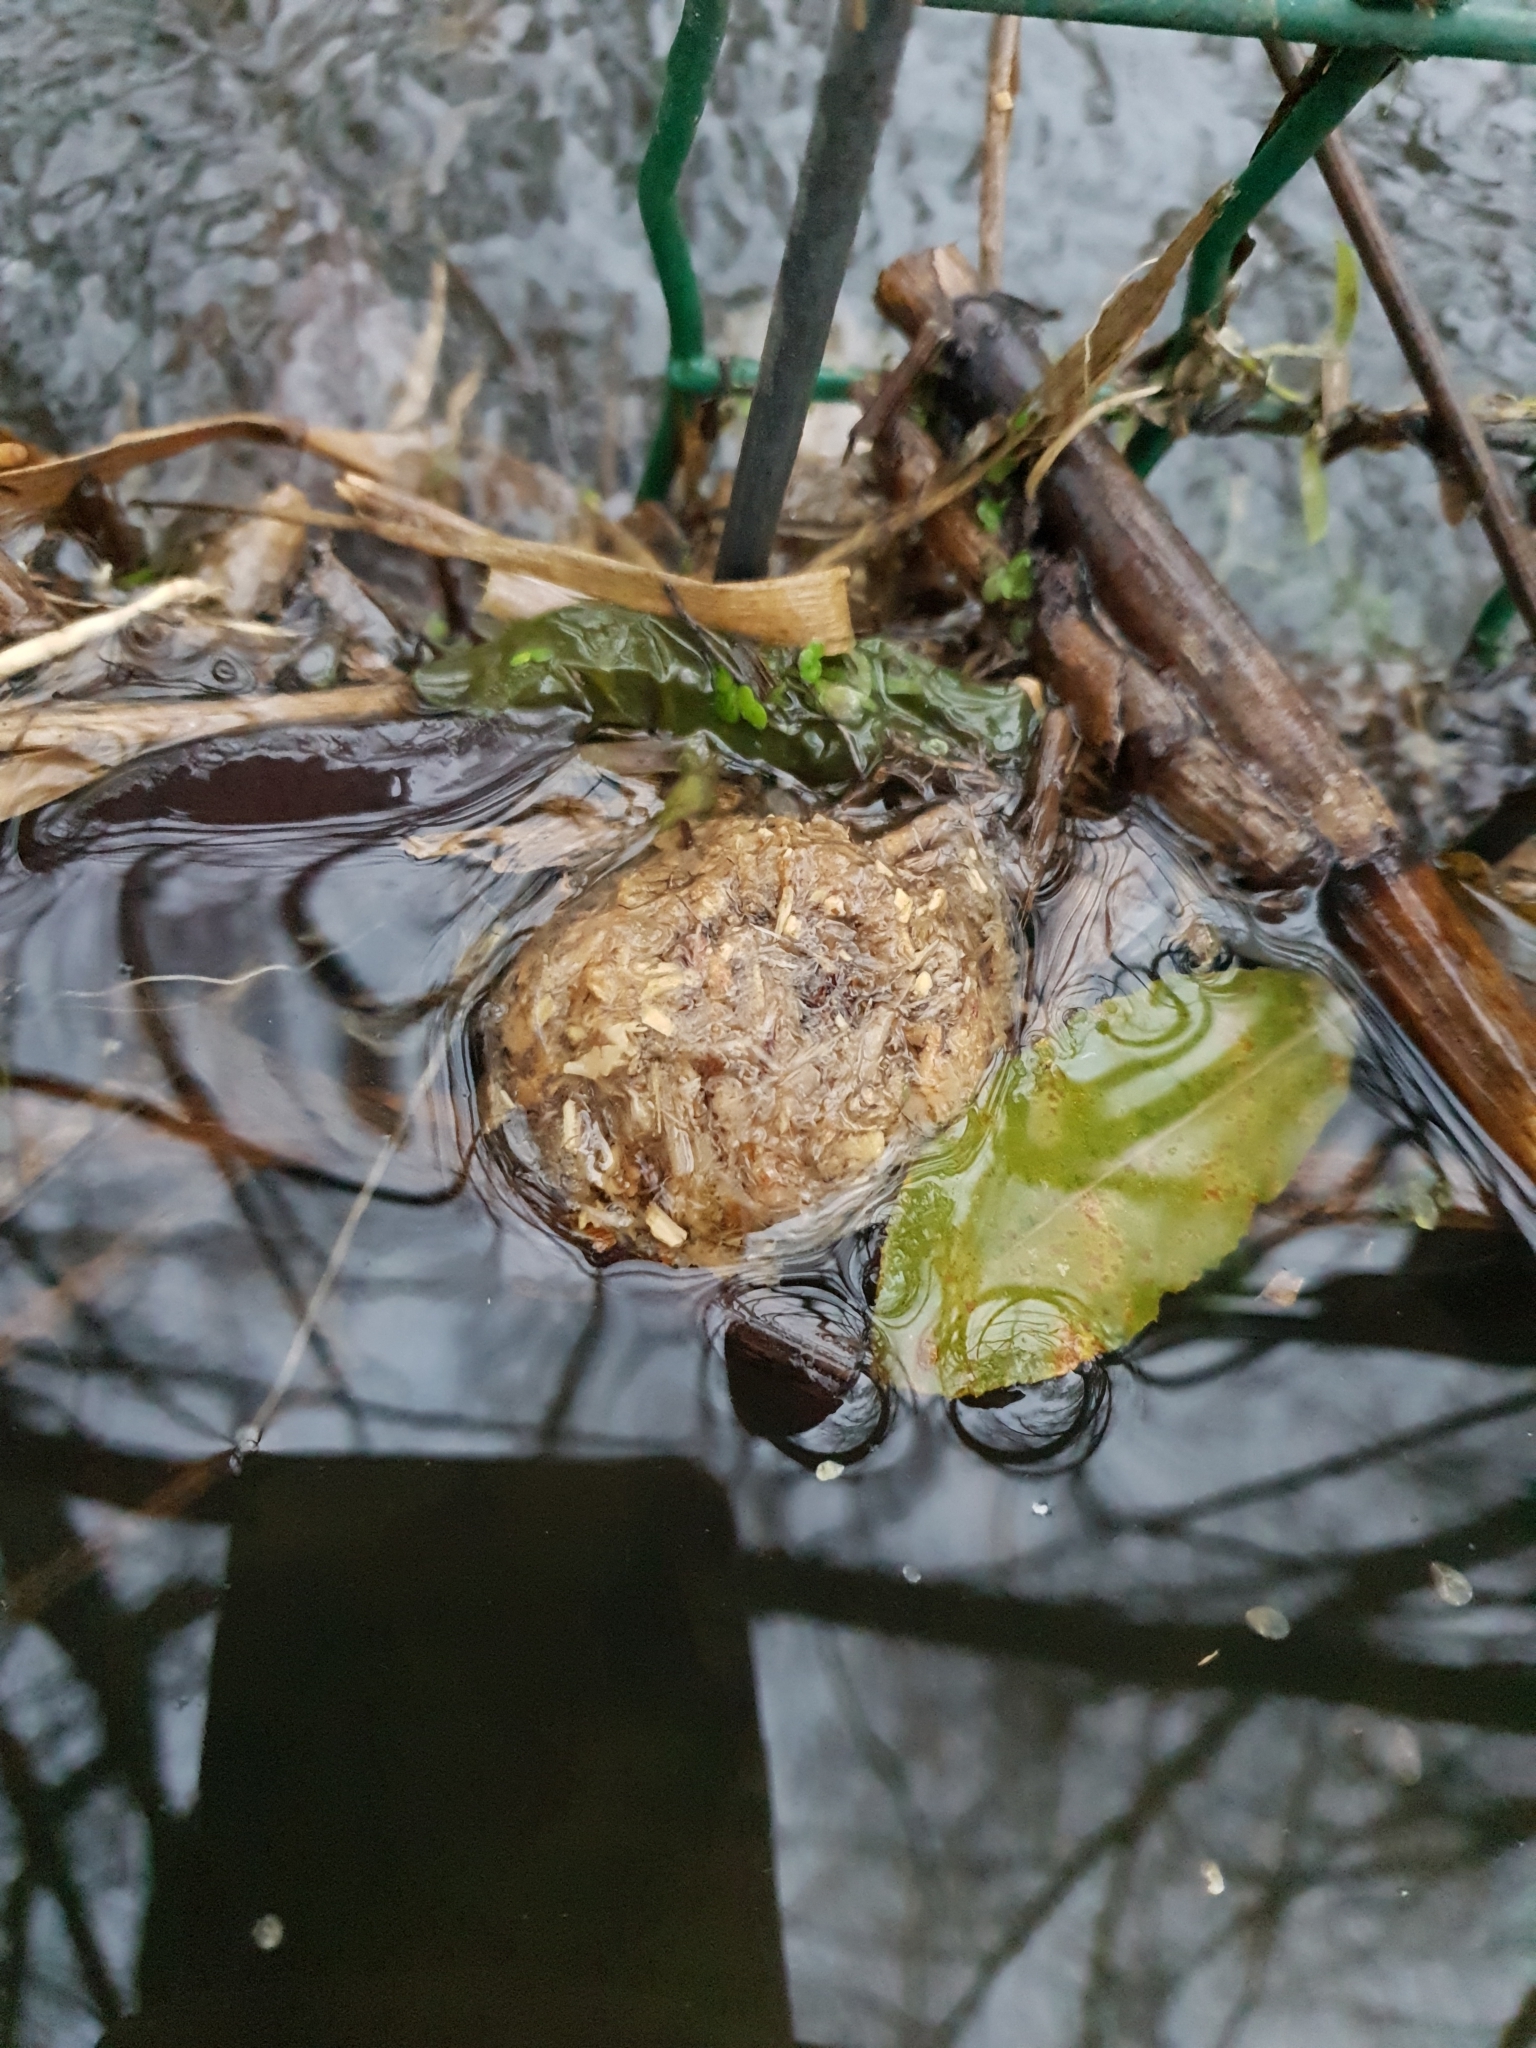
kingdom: Animalia
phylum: Chordata
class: Mammalia
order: Rodentia
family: Castoridae
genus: Castor
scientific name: Castor fiber
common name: Eurasian beaver
